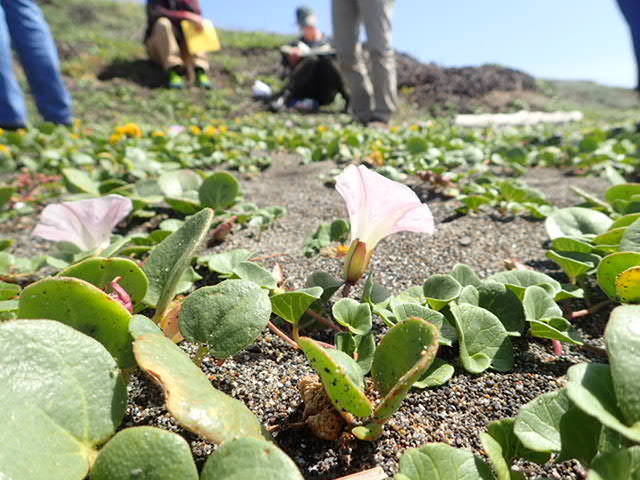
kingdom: Plantae
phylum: Tracheophyta
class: Magnoliopsida
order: Solanales
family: Convolvulaceae
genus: Calystegia
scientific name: Calystegia soldanella
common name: Sea bindweed
